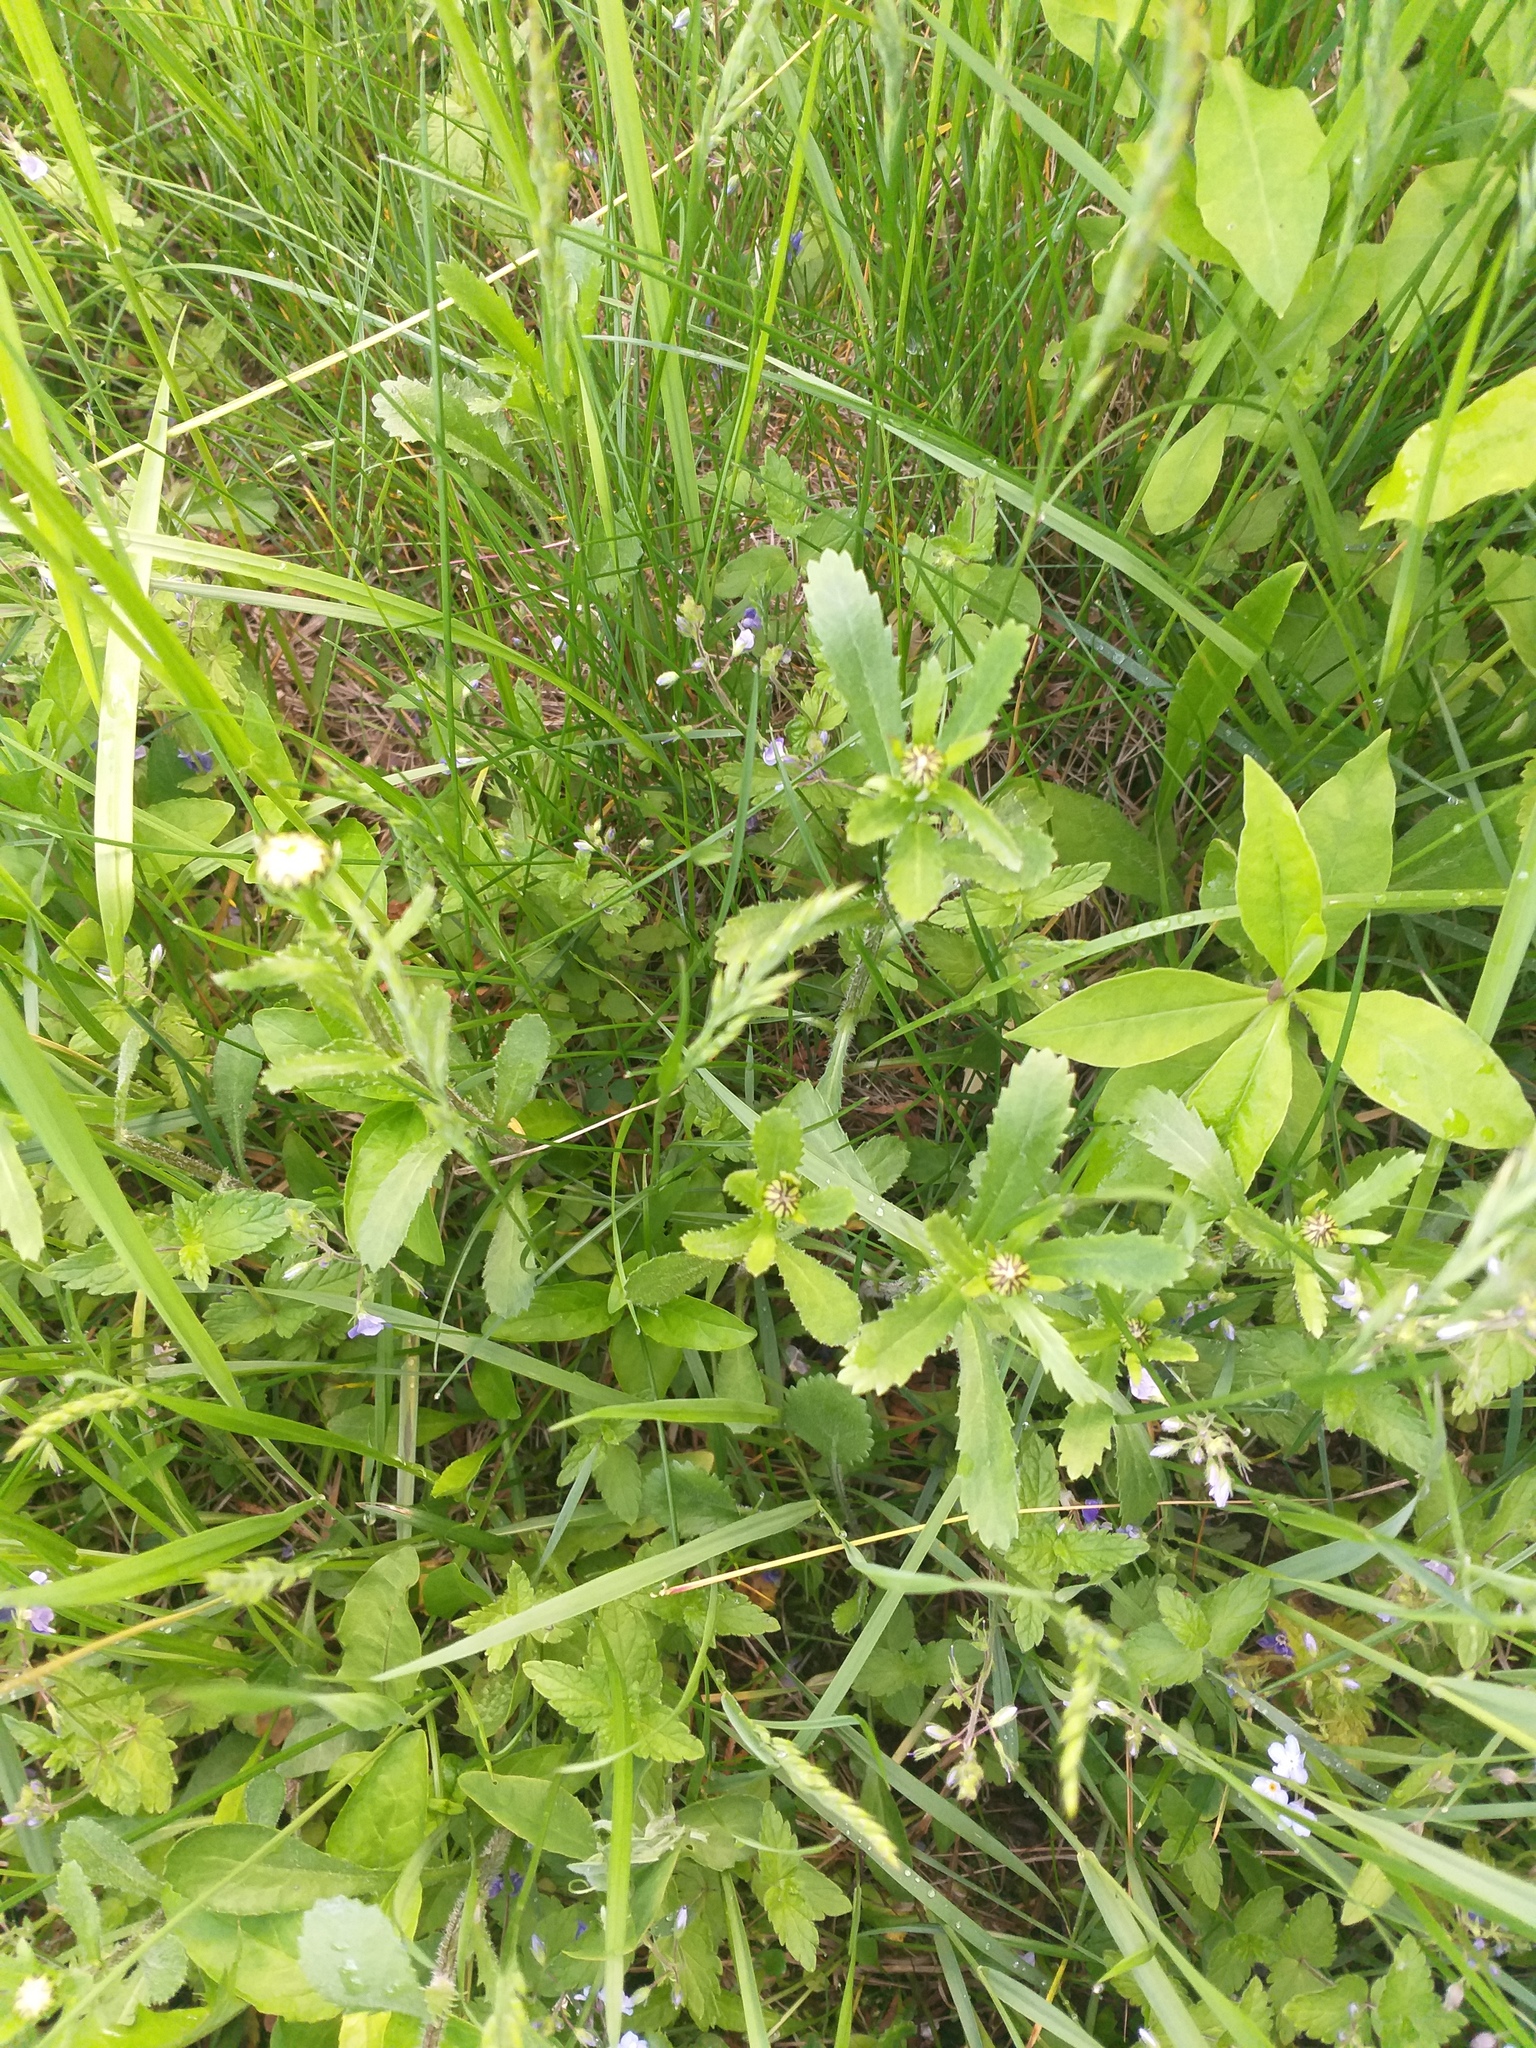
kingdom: Plantae
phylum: Tracheophyta
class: Magnoliopsida
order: Asterales
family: Asteraceae
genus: Leucanthemum
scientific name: Leucanthemum vulgare
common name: Oxeye daisy
